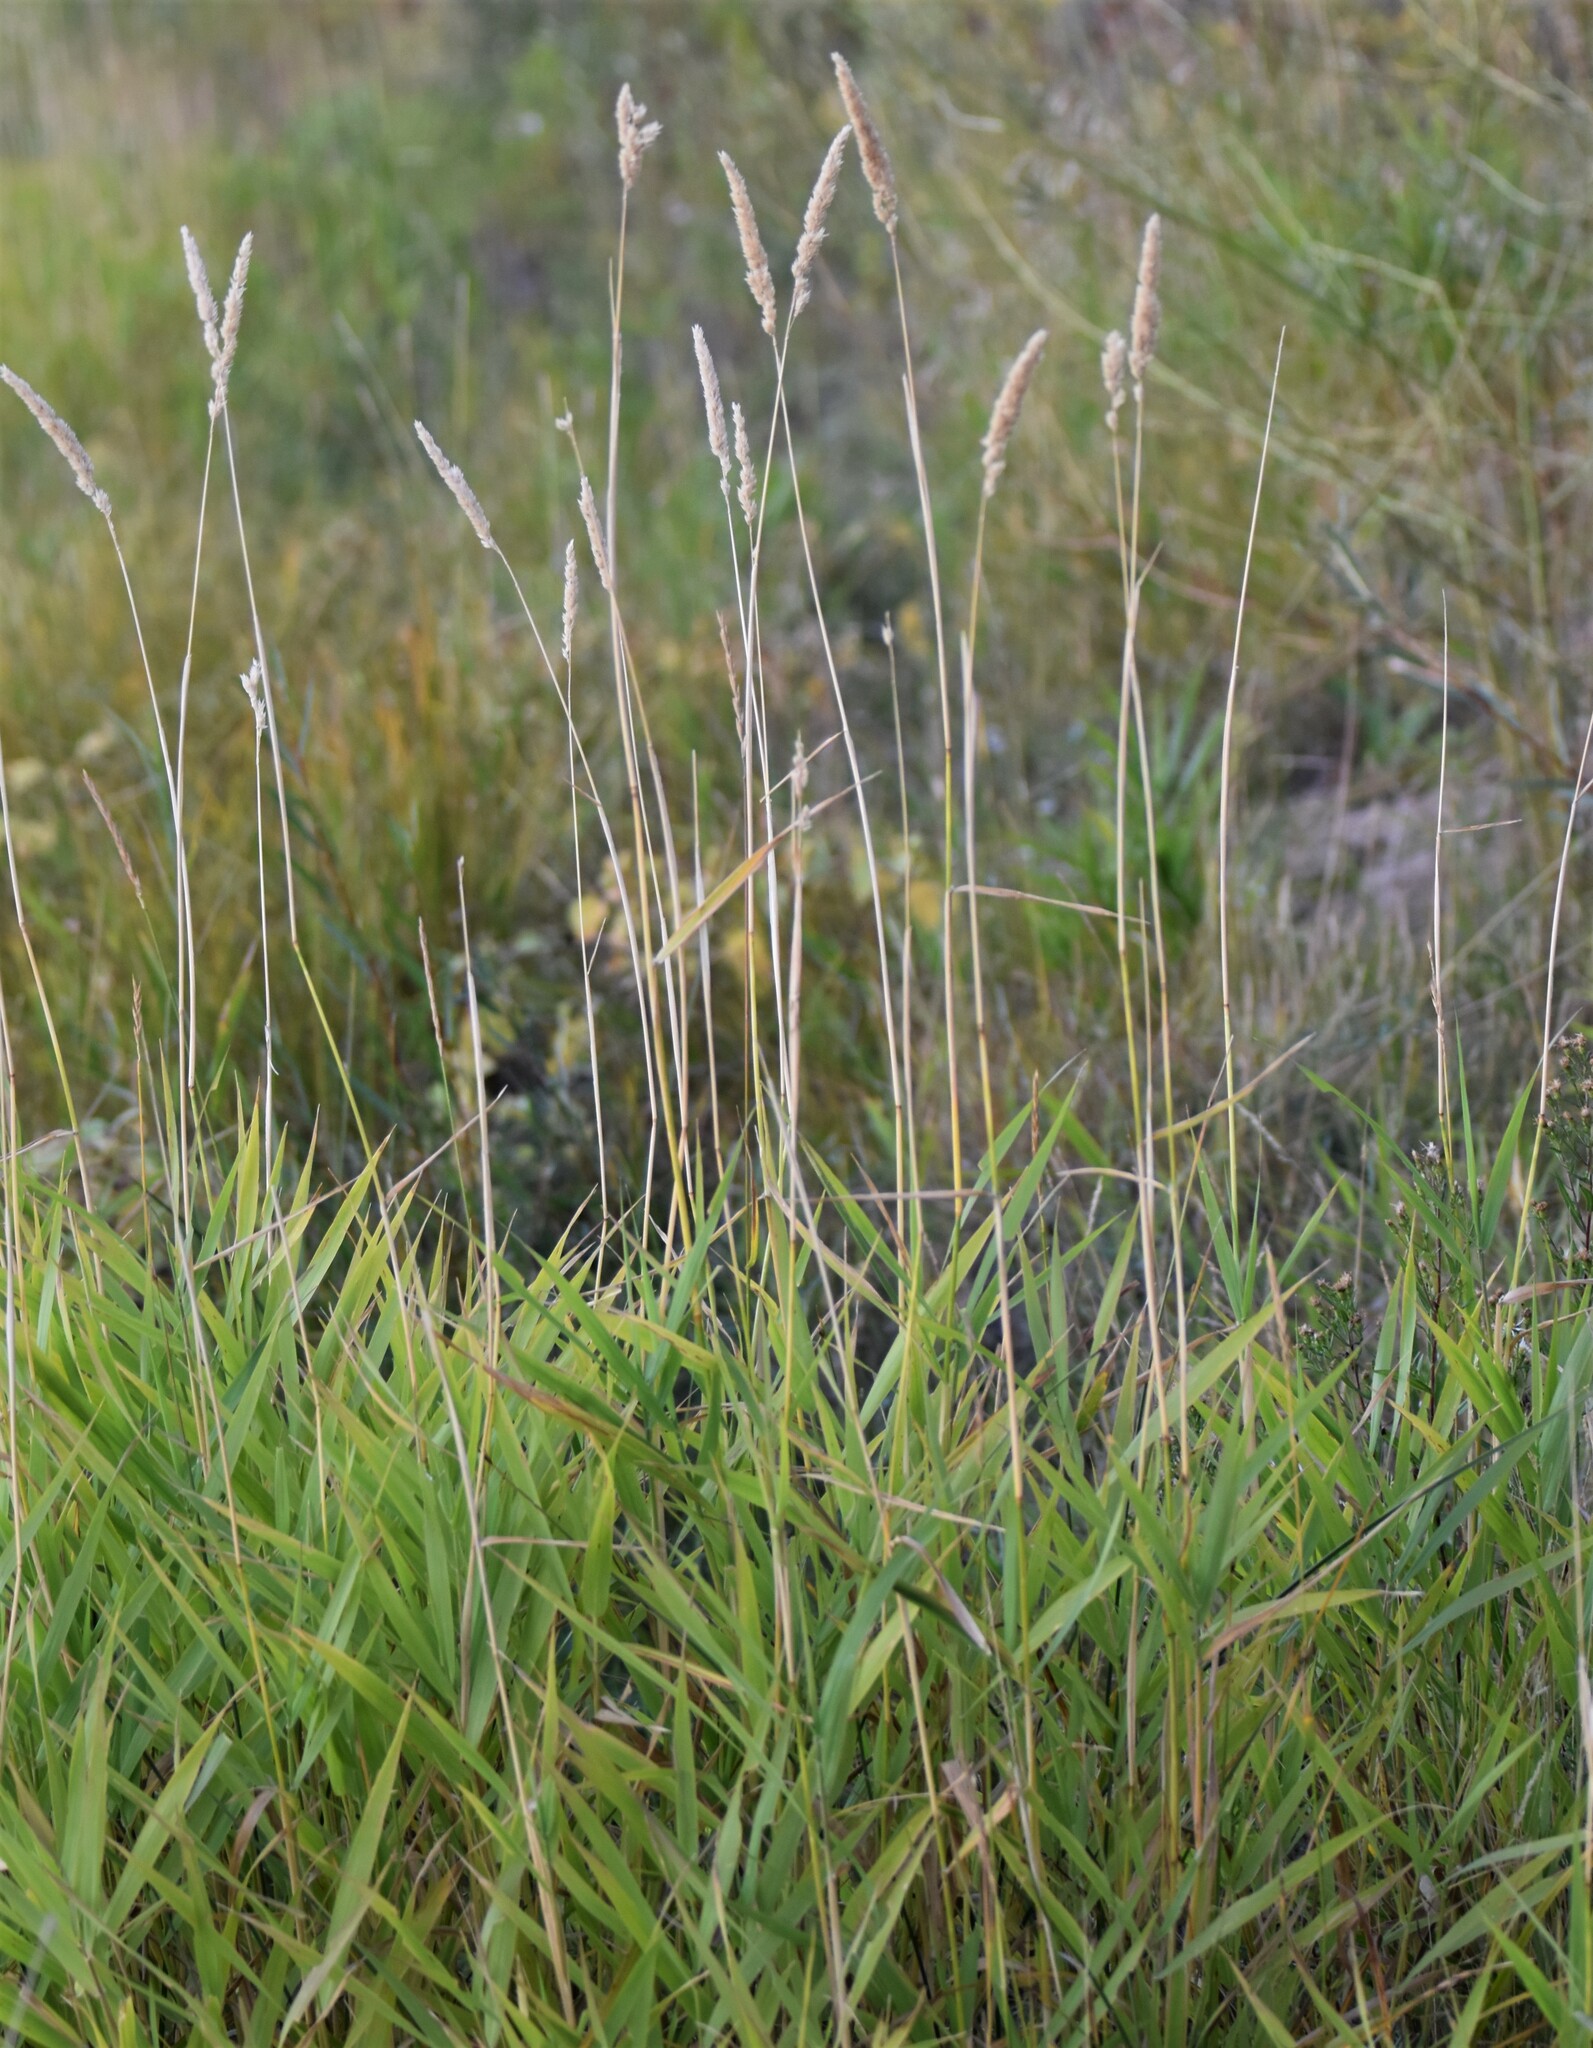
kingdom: Plantae
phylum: Tracheophyta
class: Liliopsida
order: Poales
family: Poaceae
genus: Phalaris
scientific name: Phalaris arundinacea
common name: Reed canary-grass
